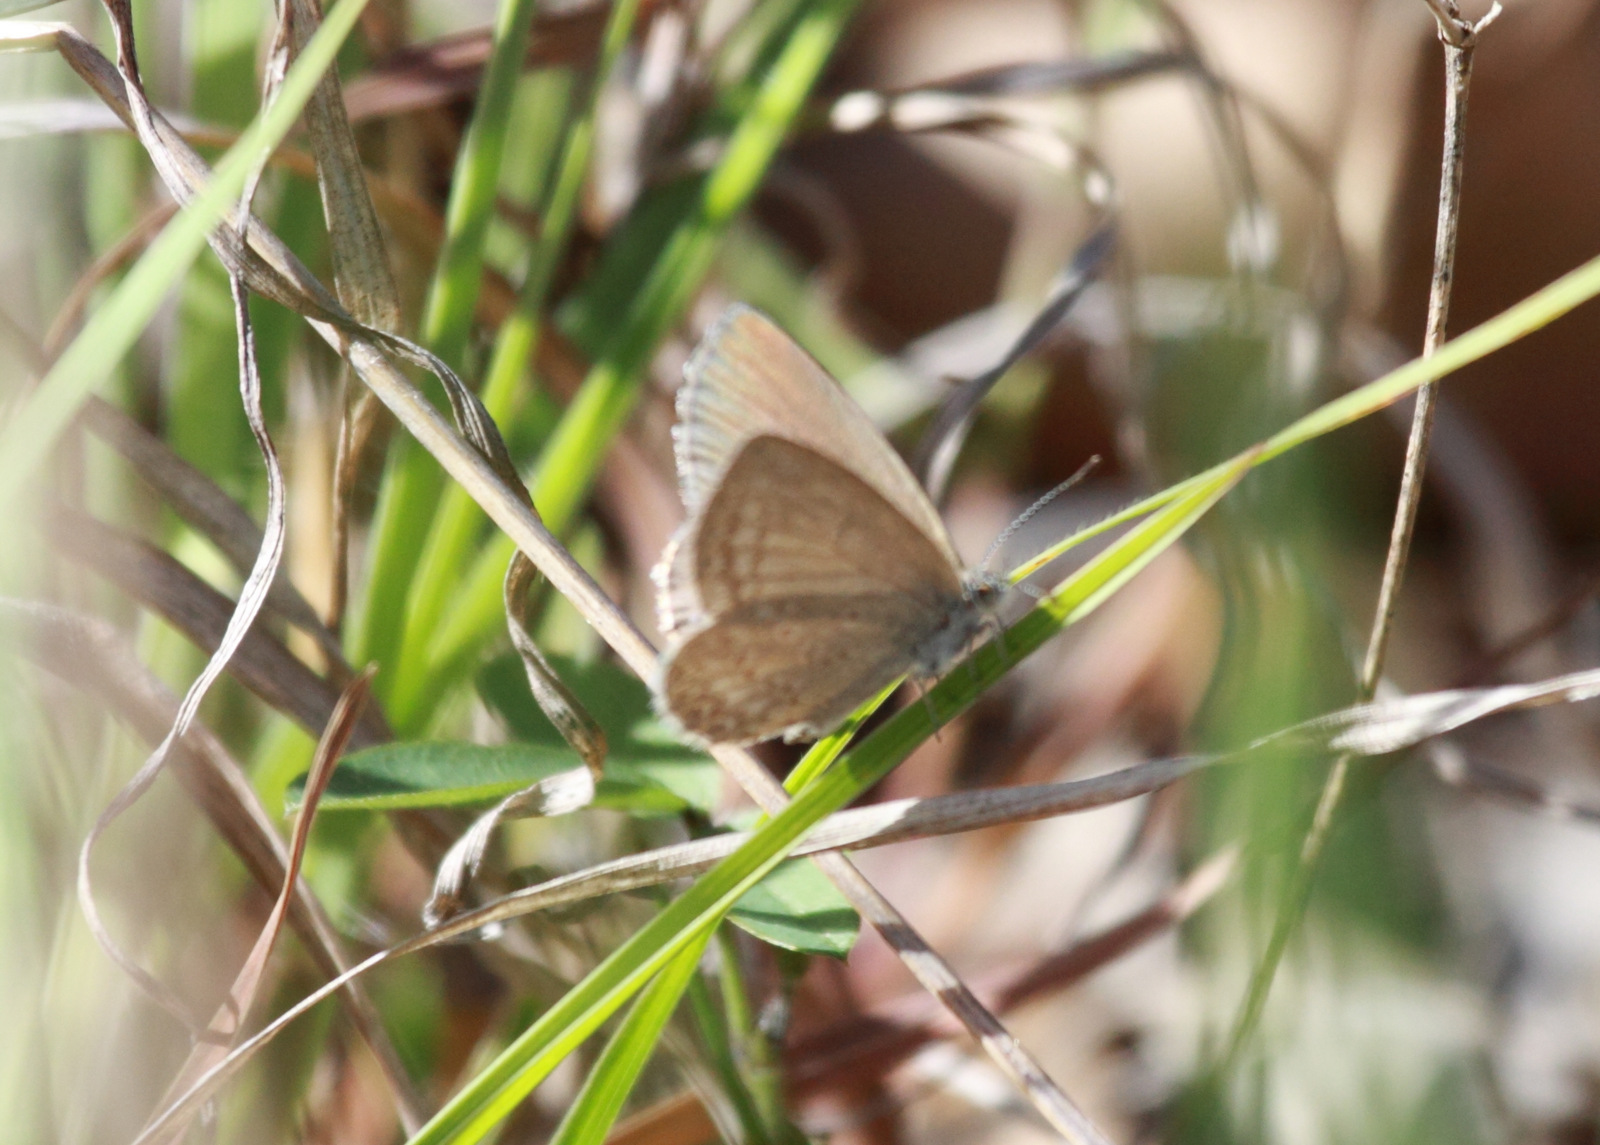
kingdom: Animalia
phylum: Arthropoda
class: Insecta
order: Lepidoptera
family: Lycaenidae
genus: Zizina
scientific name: Zizina labradus
